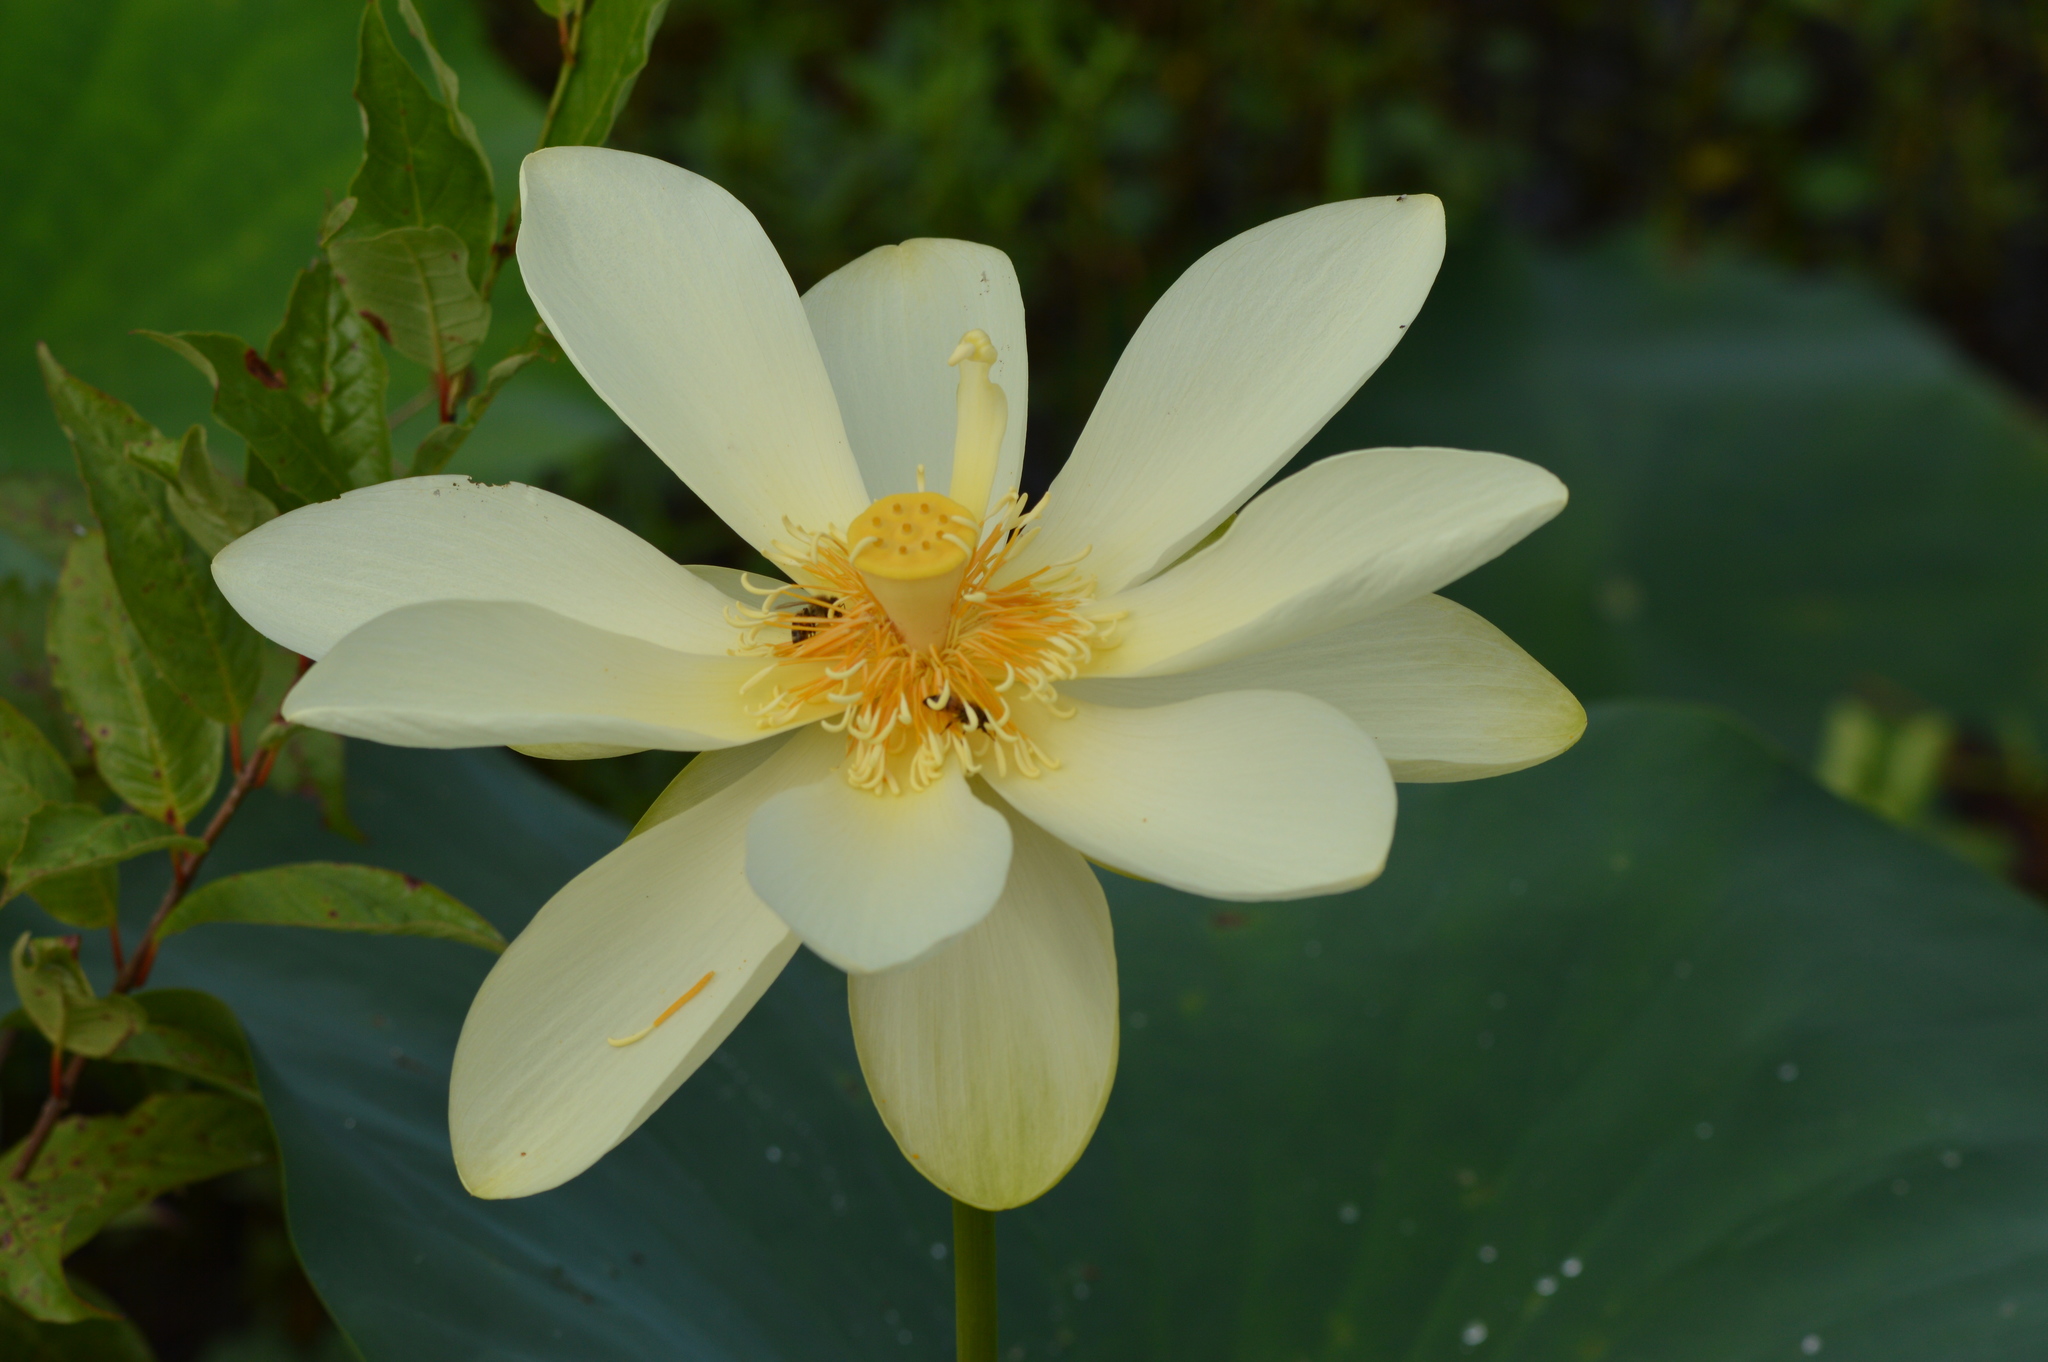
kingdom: Plantae
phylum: Tracheophyta
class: Magnoliopsida
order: Proteales
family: Nelumbonaceae
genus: Nelumbo
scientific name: Nelumbo lutea
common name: American lotus
